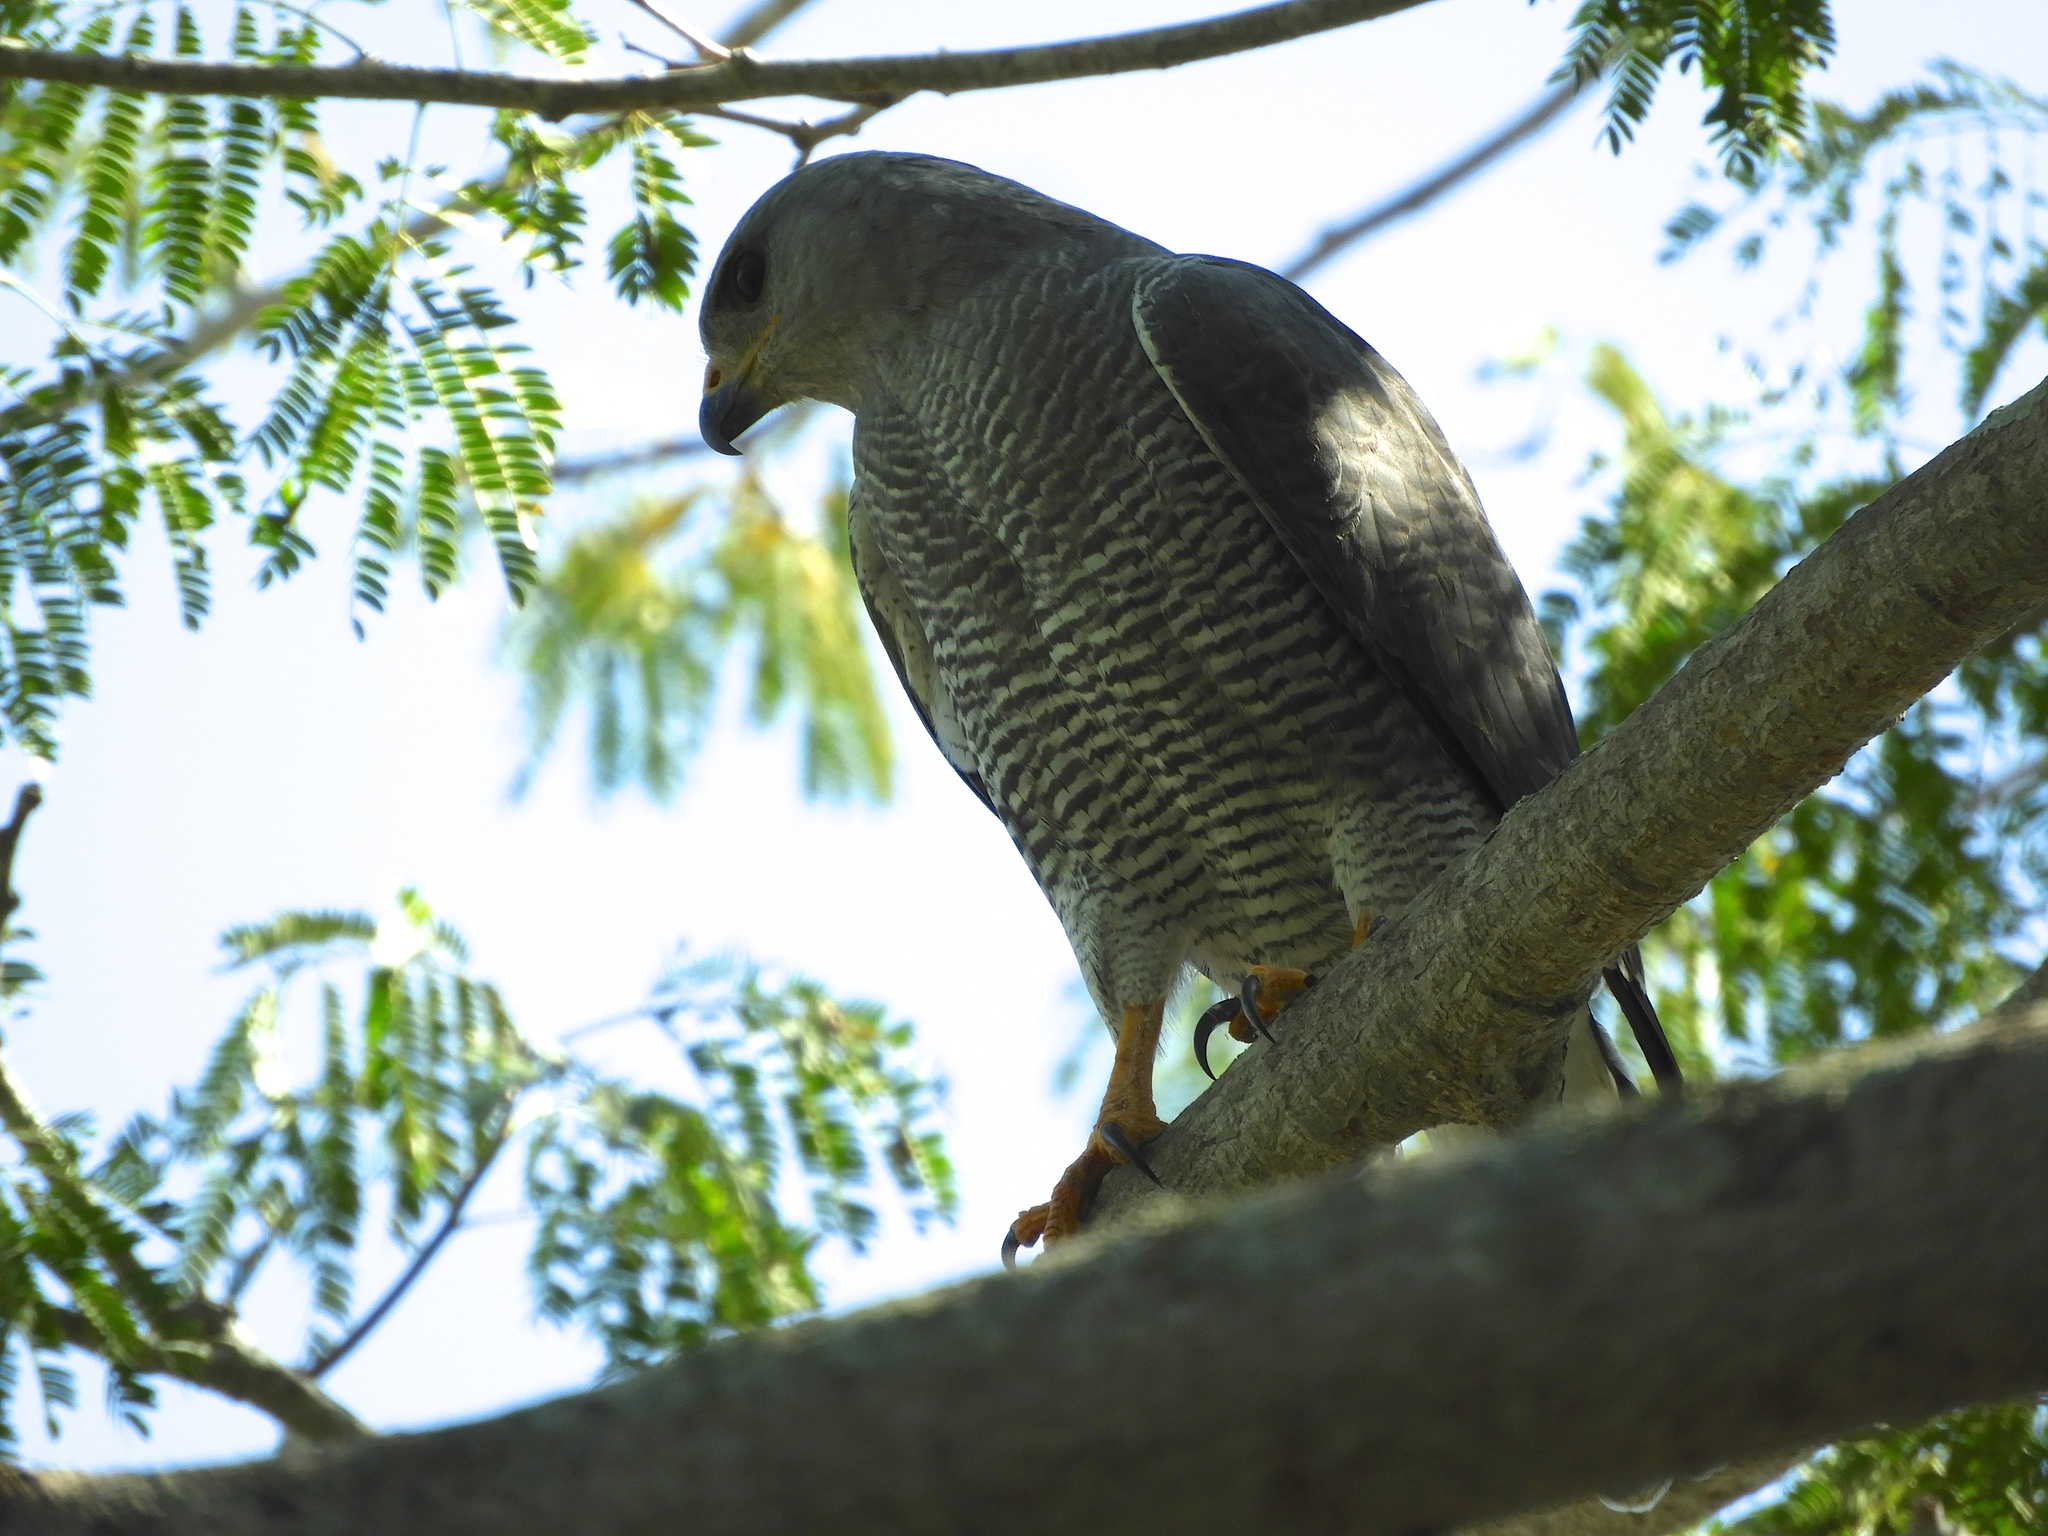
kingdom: Animalia
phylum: Chordata
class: Aves
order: Accipitriformes
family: Accipitridae
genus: Buteo
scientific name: Buteo nitidus
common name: Grey-lined hawk
